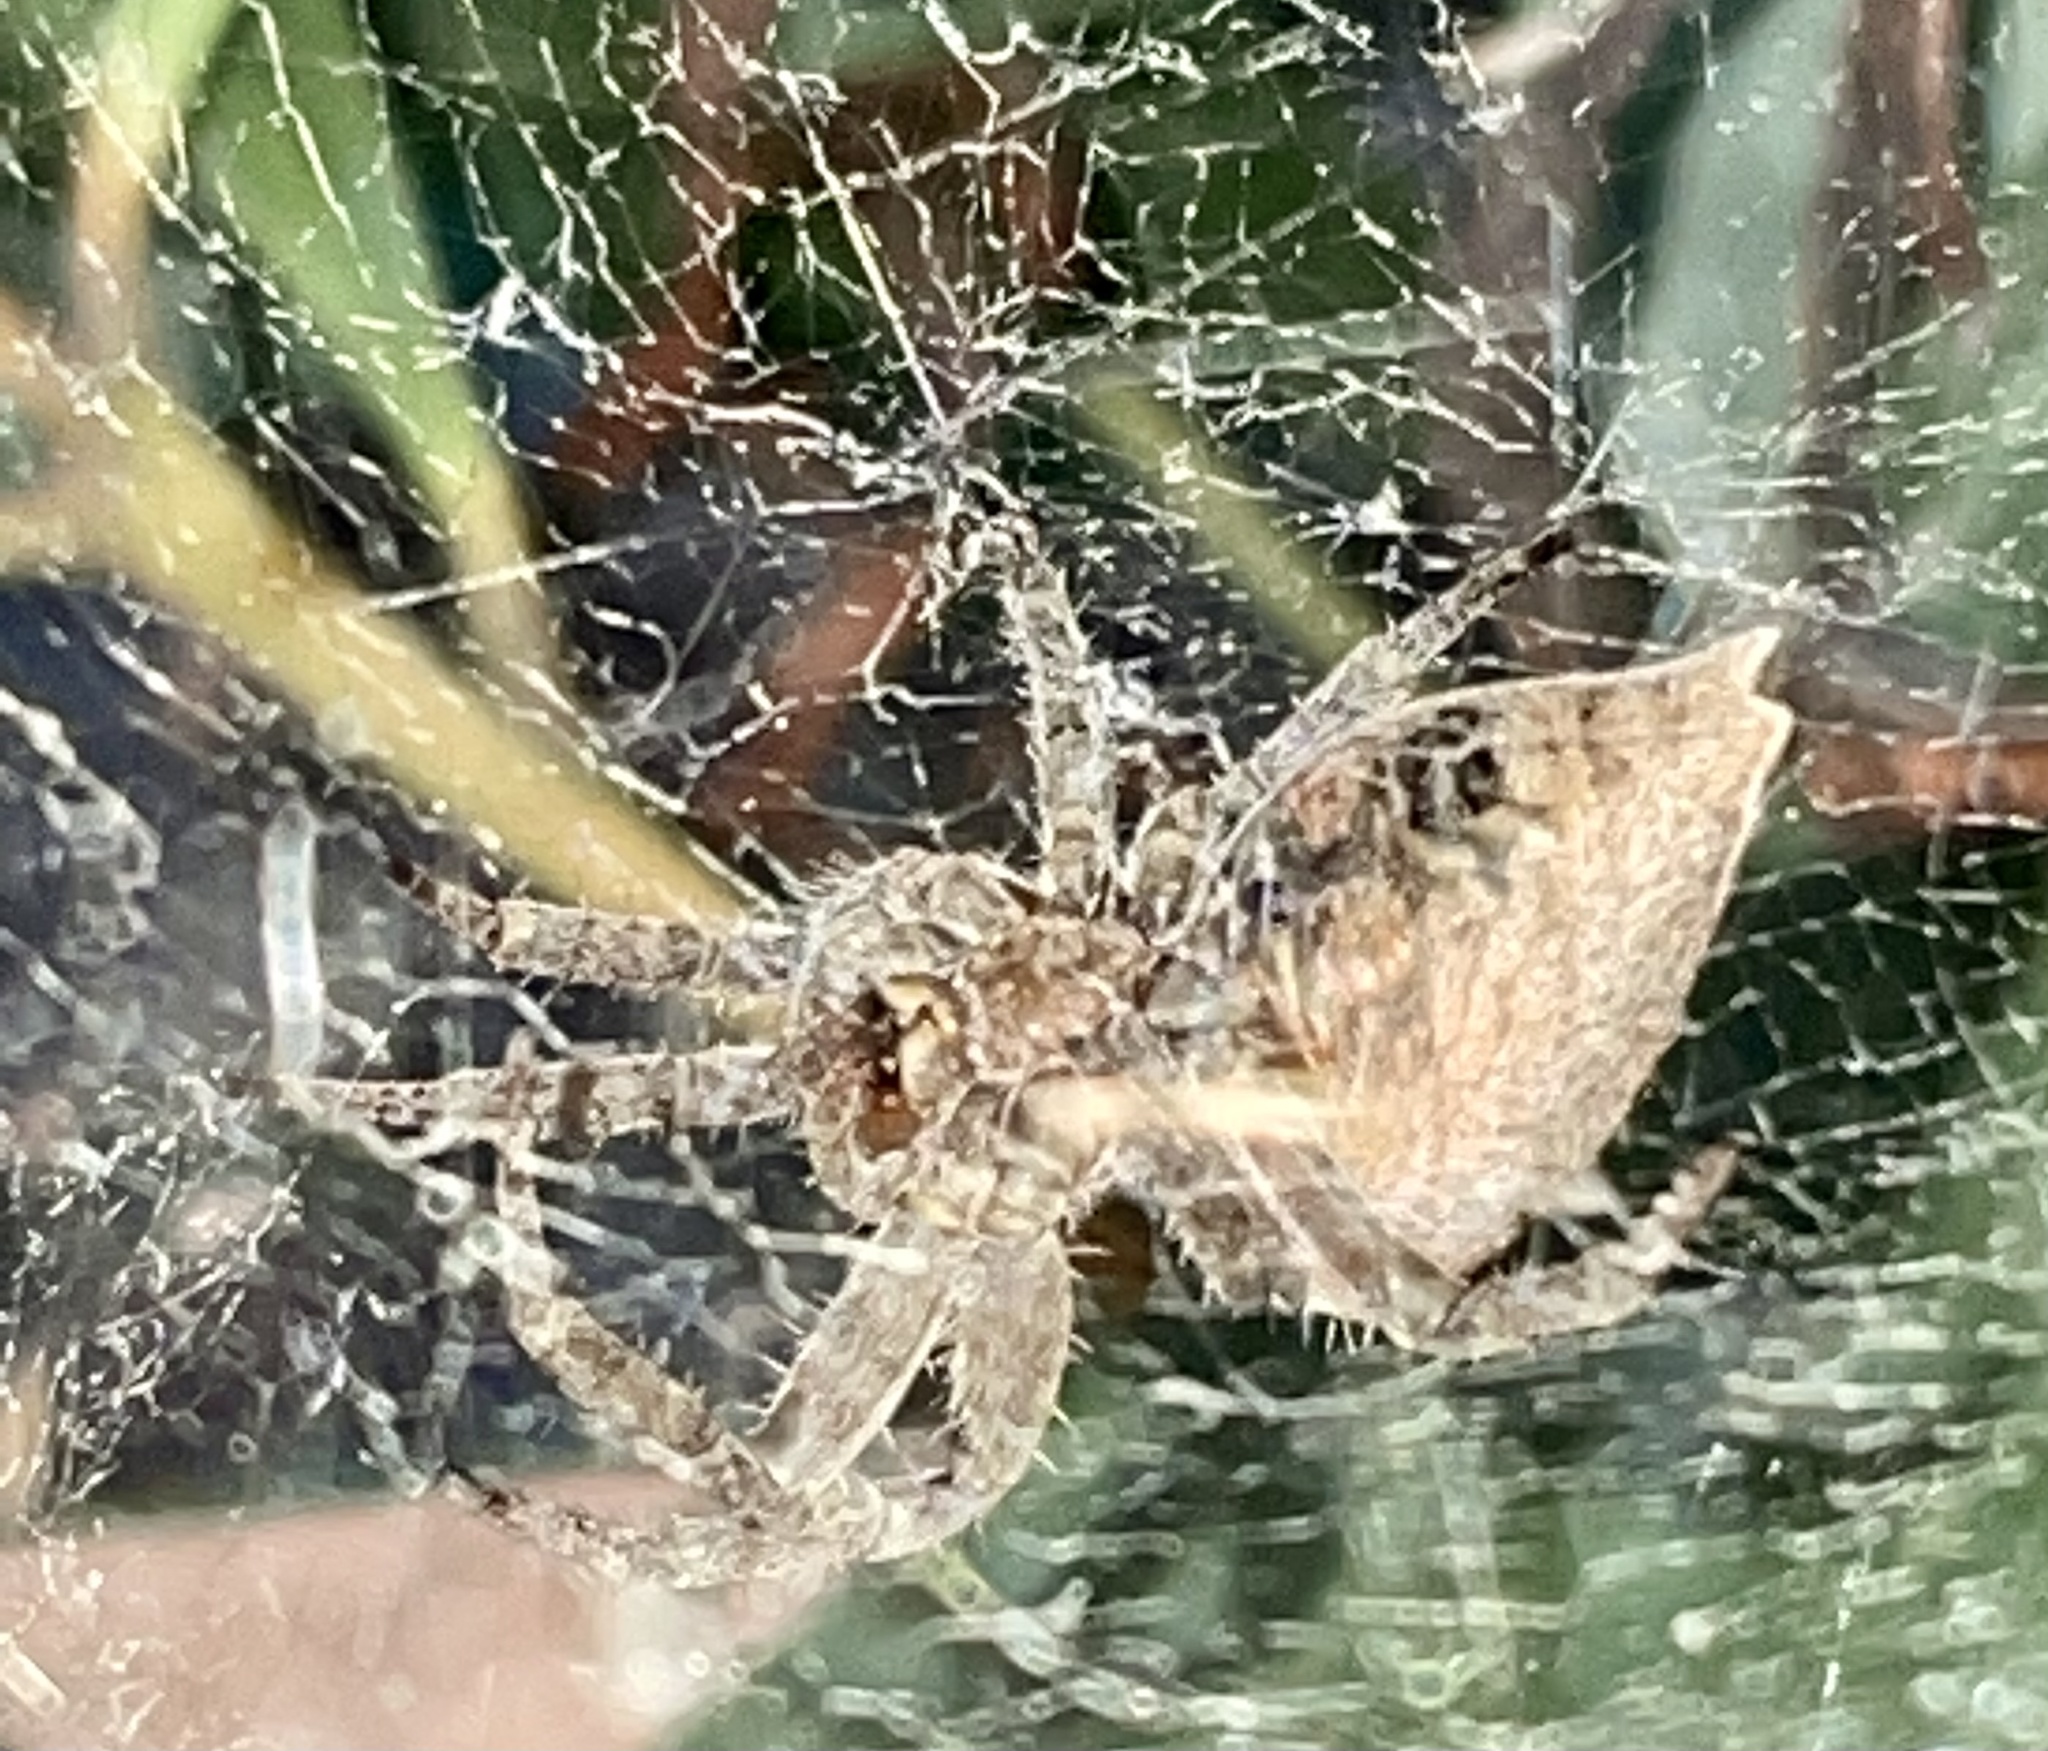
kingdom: Animalia
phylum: Arthropoda
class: Arachnida
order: Araneae
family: Araneidae
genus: Cyrtophora
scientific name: Cyrtophora exanthematica
